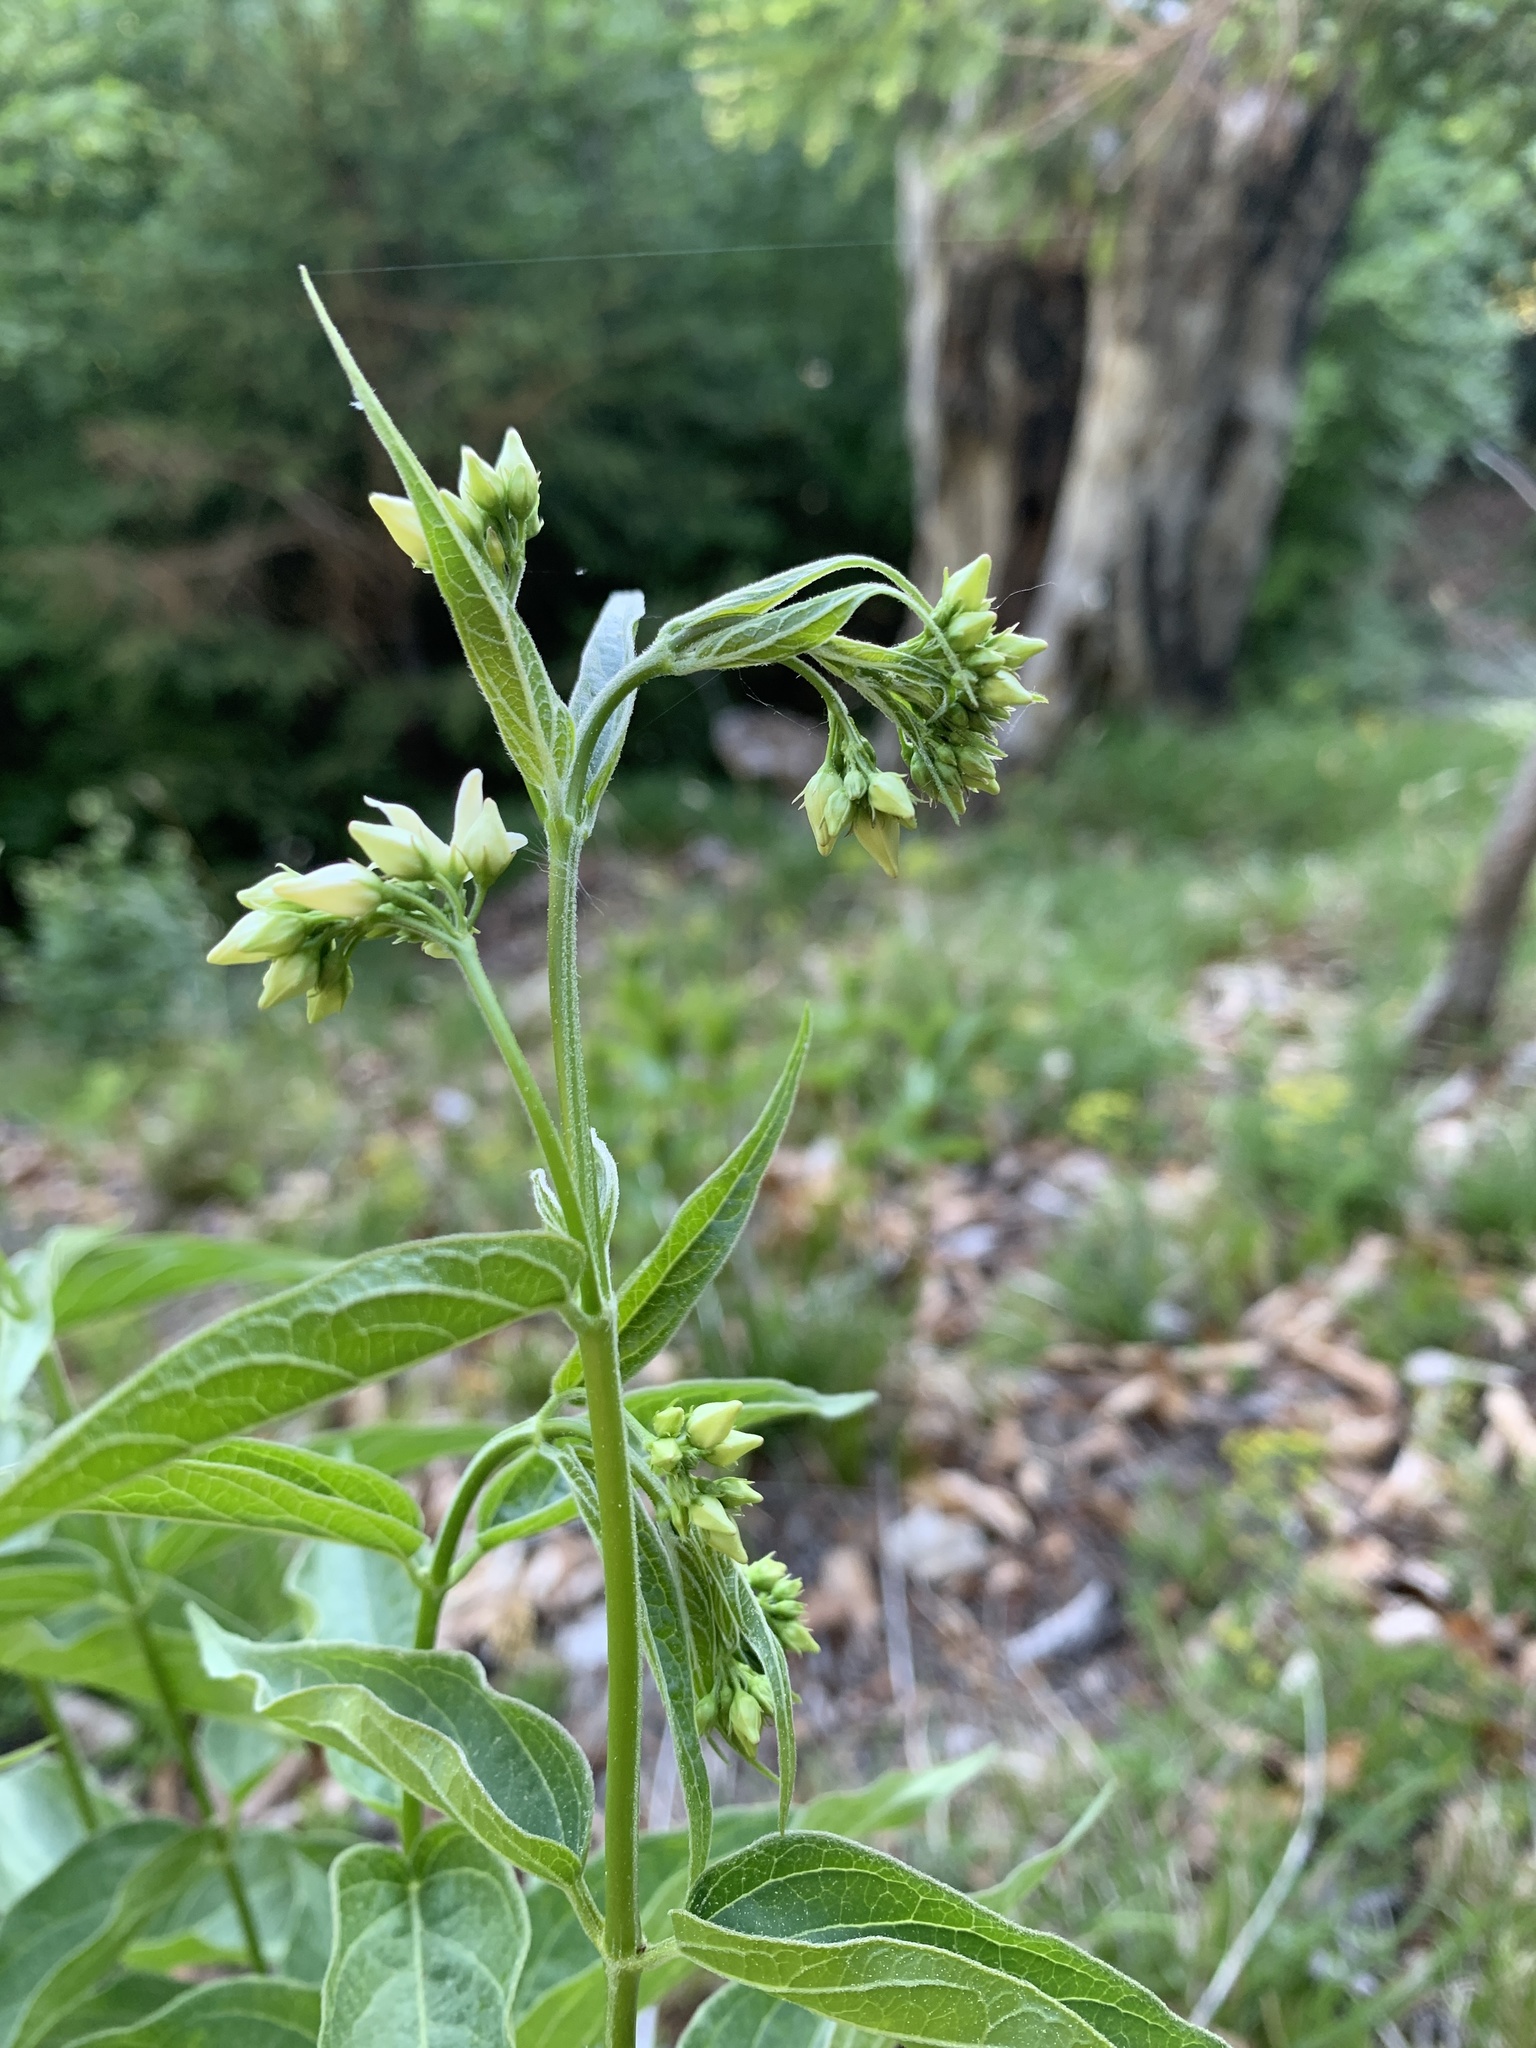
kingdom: Plantae
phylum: Tracheophyta
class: Magnoliopsida
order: Gentianales
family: Apocynaceae
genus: Vincetoxicum
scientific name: Vincetoxicum hirundinaria
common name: White swallowwort
